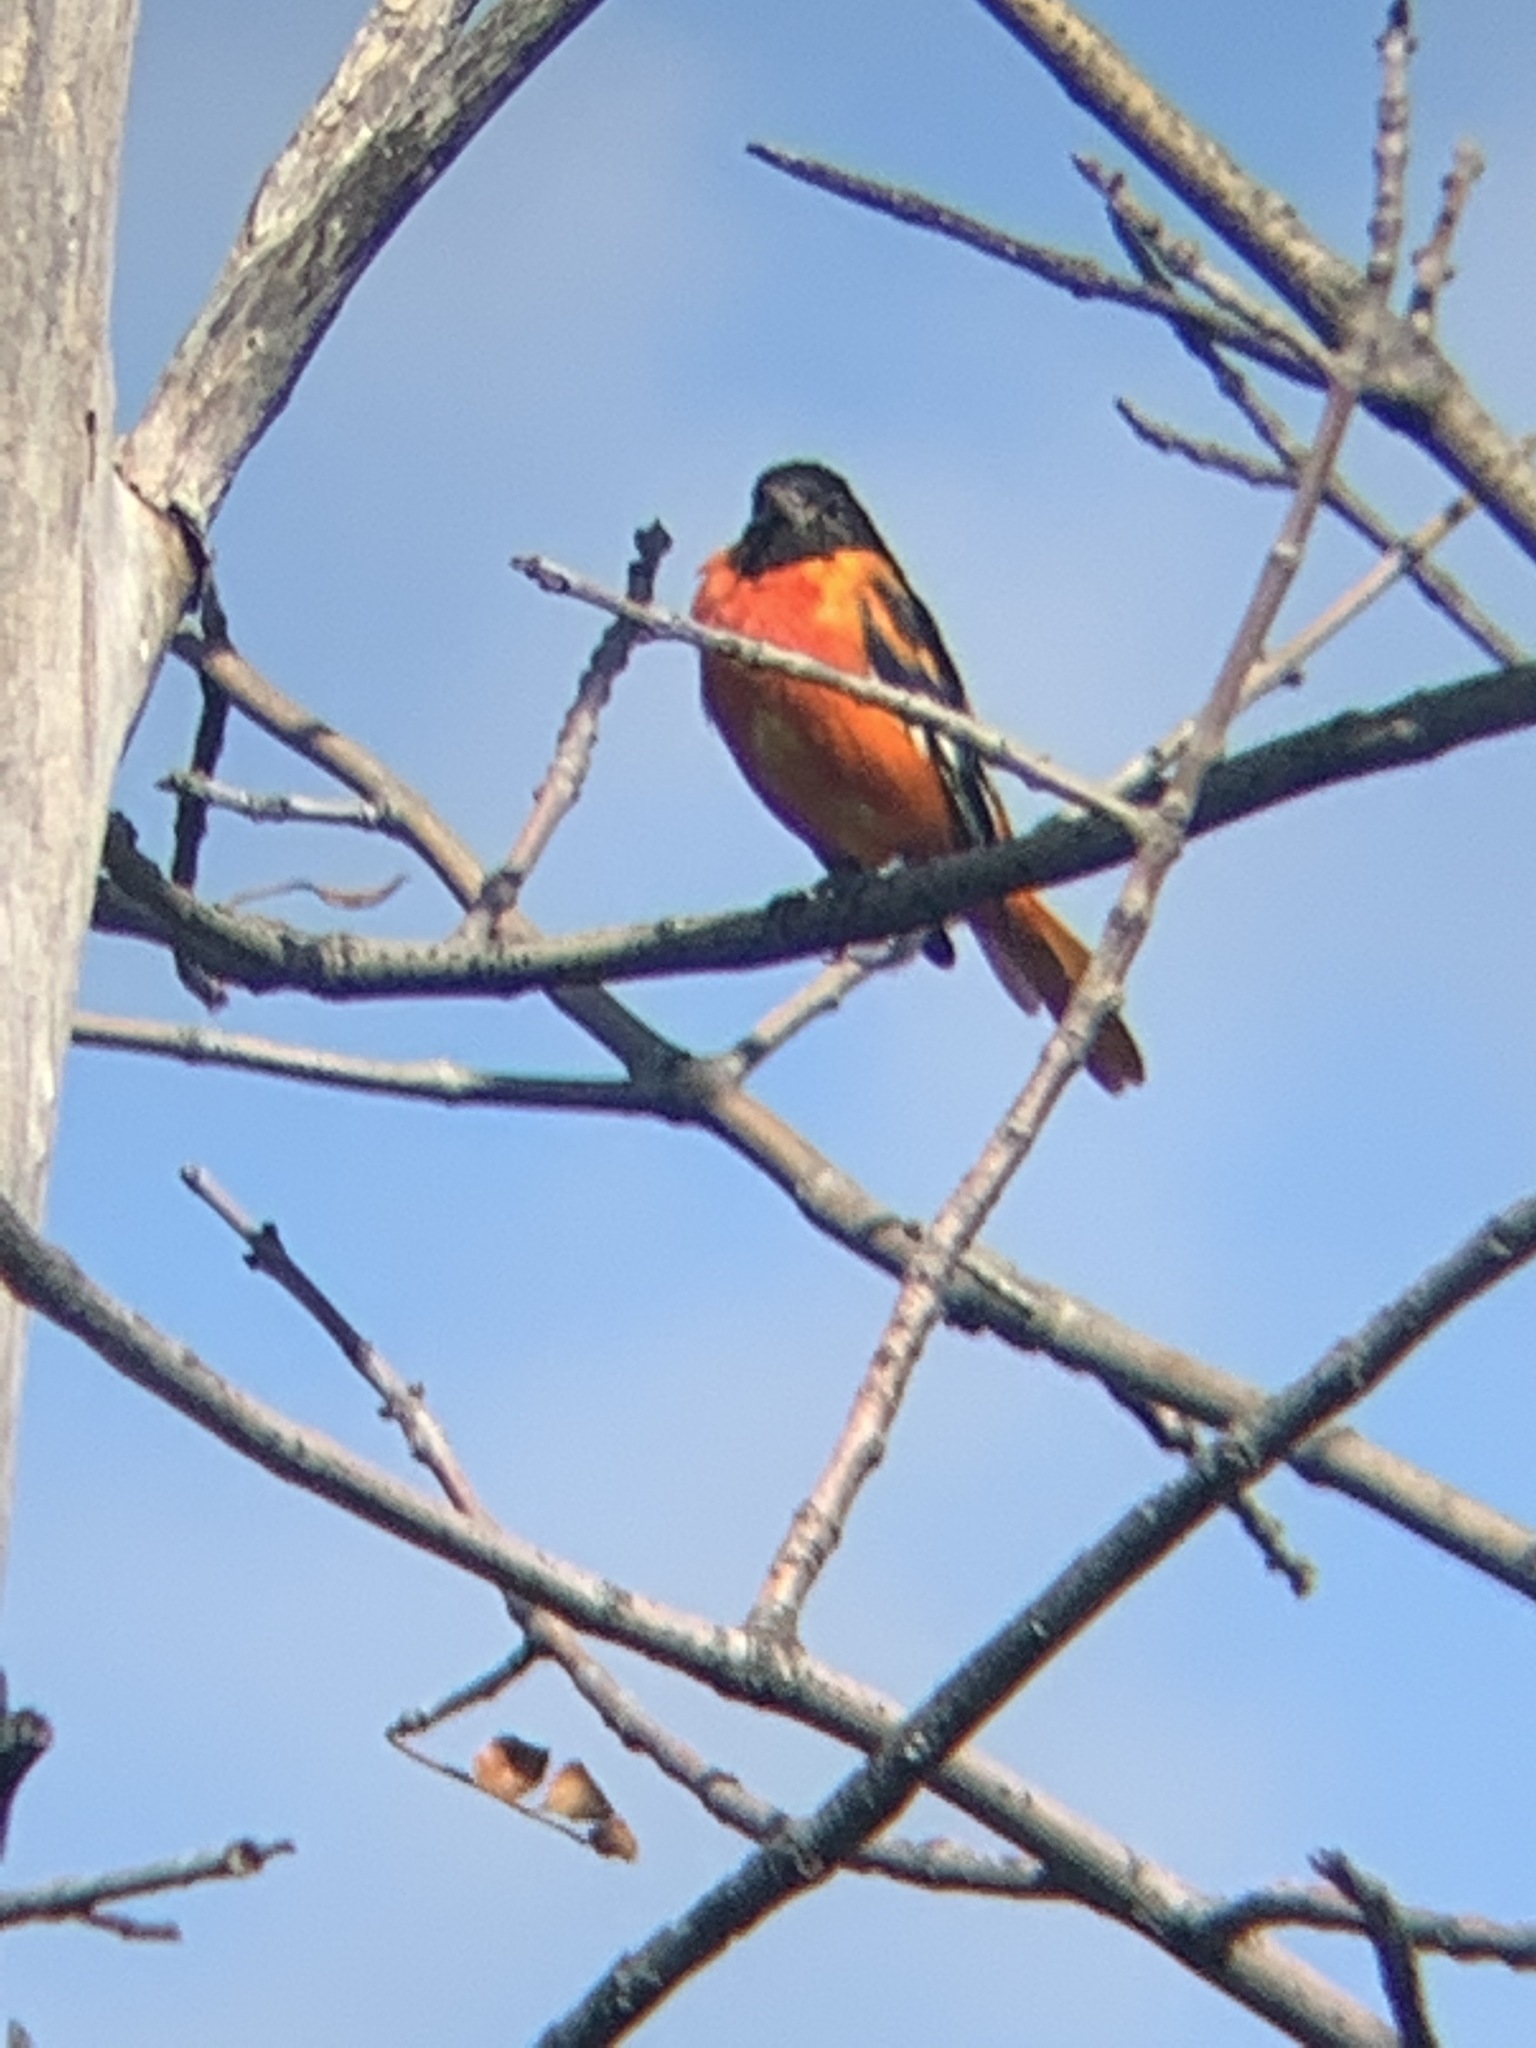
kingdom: Animalia
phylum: Chordata
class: Aves
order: Passeriformes
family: Icteridae
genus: Icterus
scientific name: Icterus galbula
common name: Baltimore oriole
